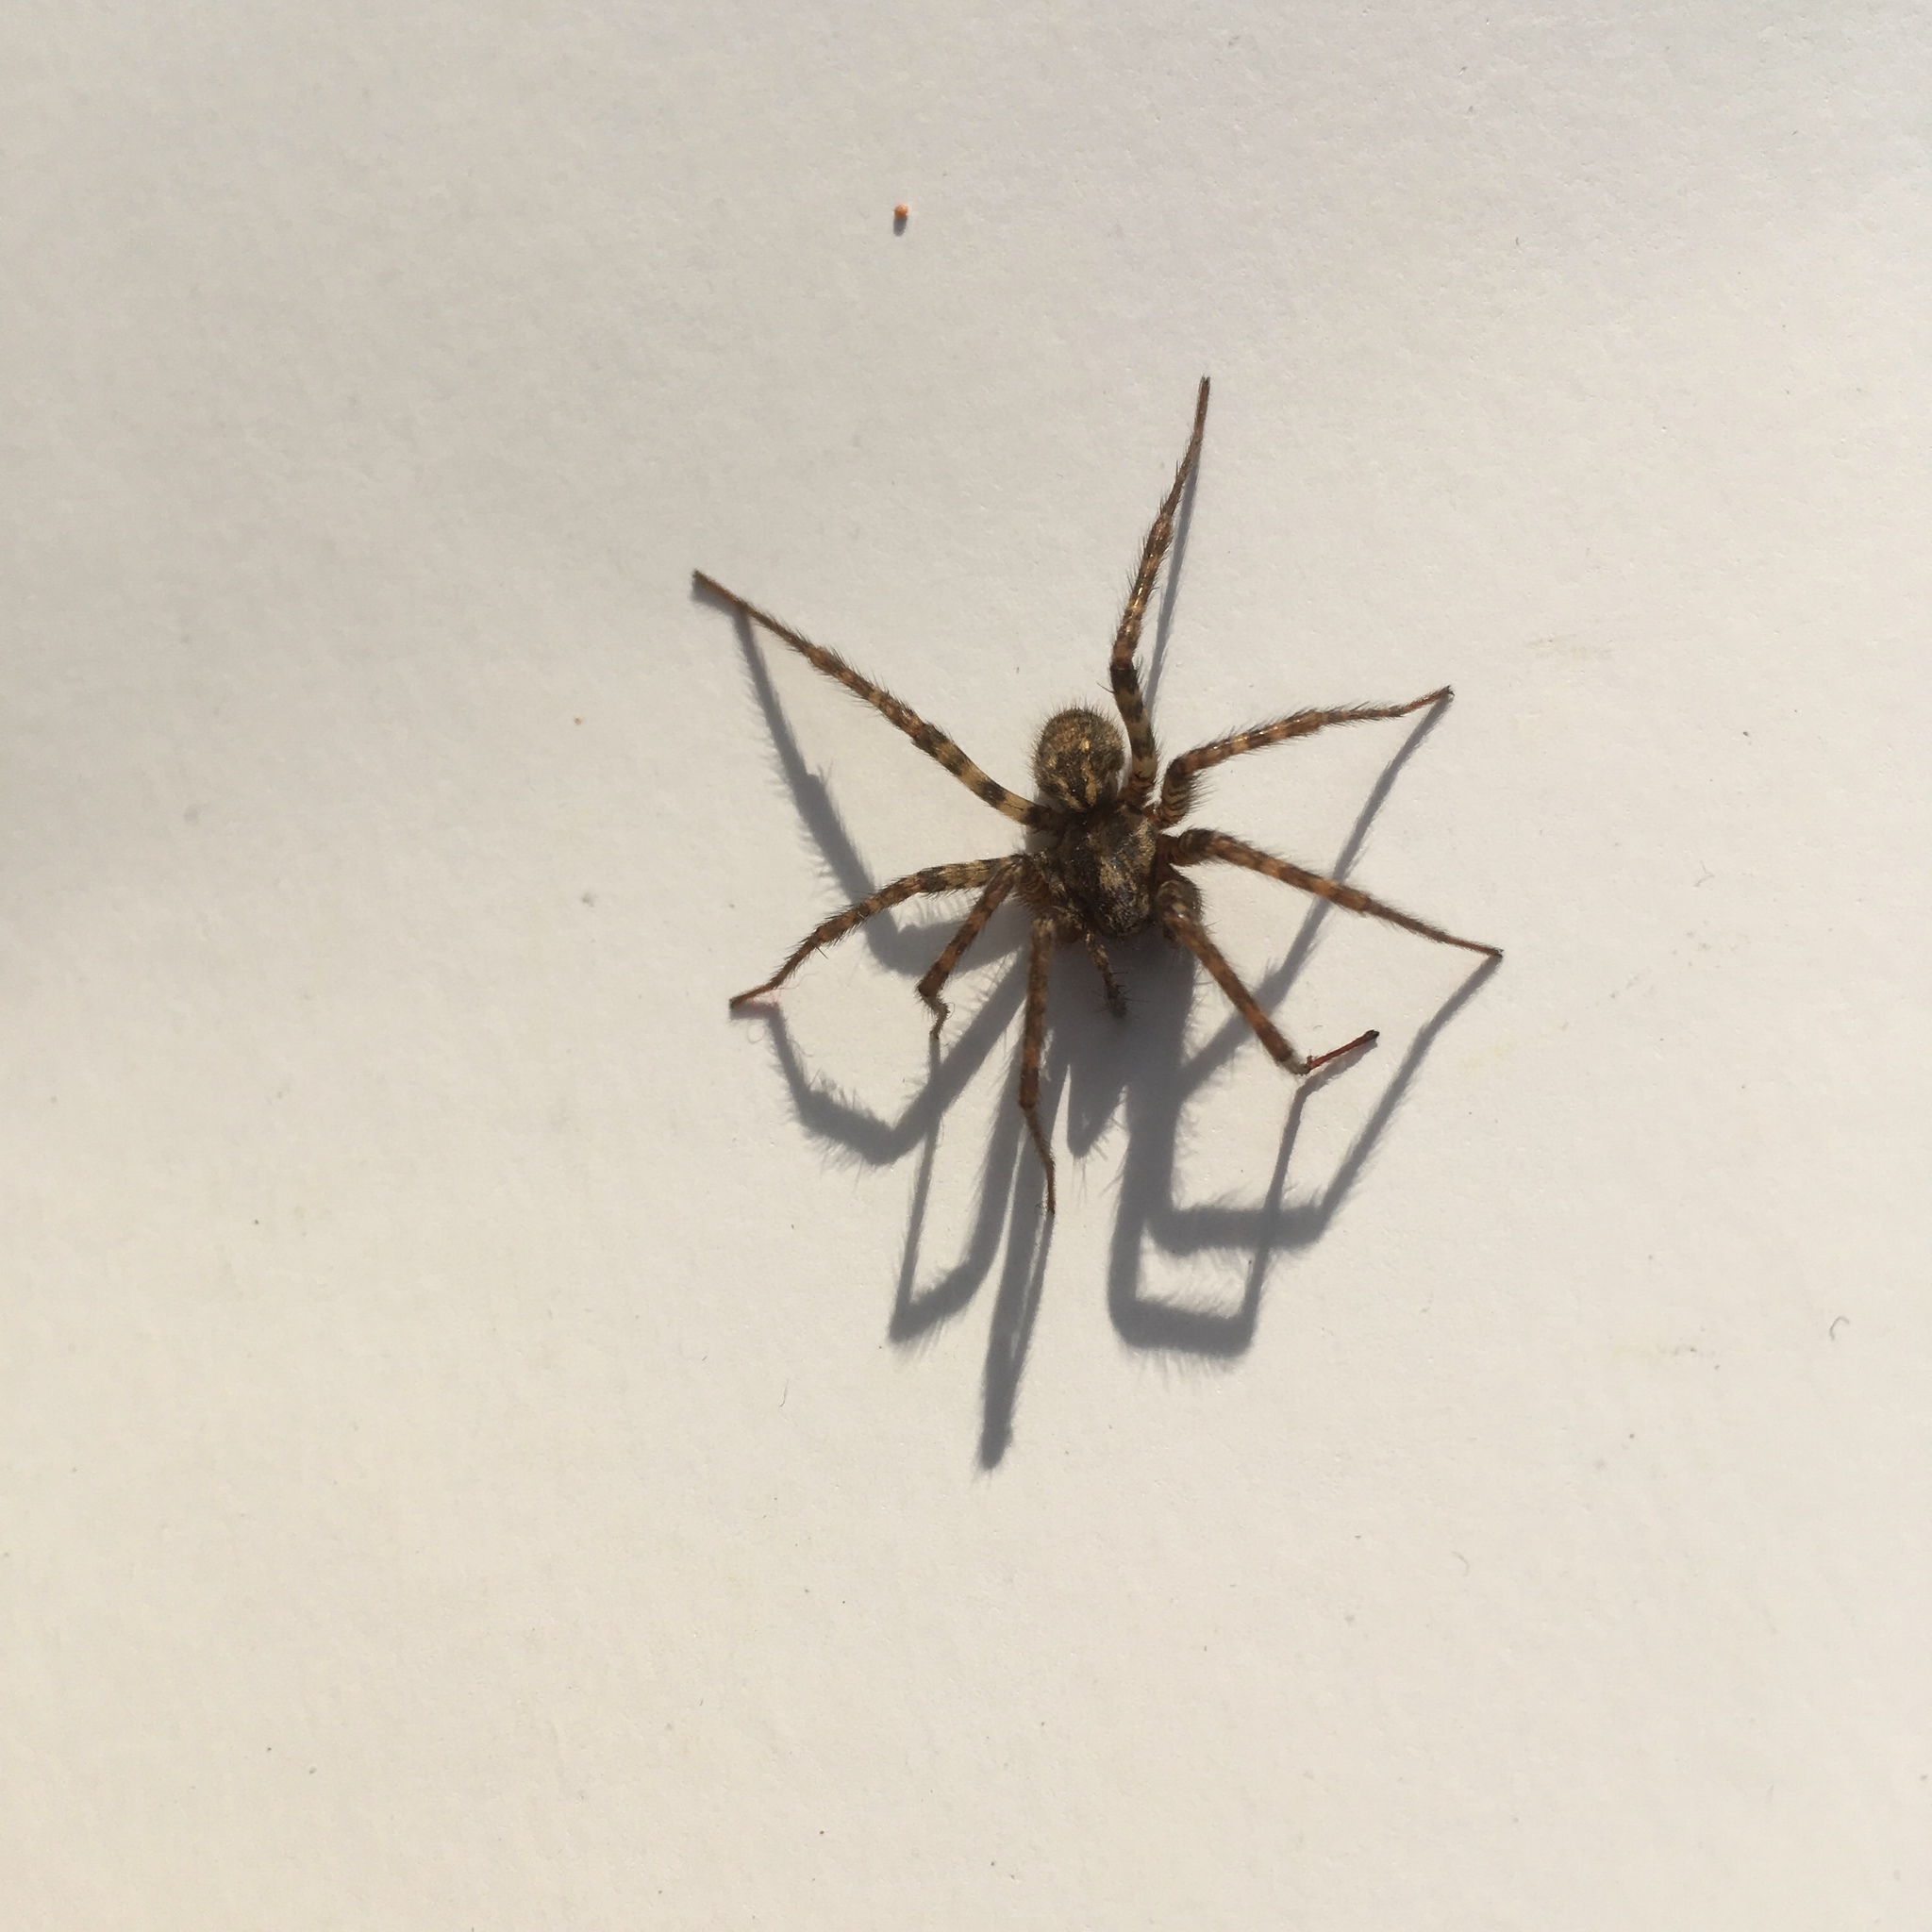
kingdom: Animalia
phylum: Arthropoda
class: Arachnida
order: Araneae
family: Agelenidae
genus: Tegenaria
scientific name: Tegenaria ferruginea
